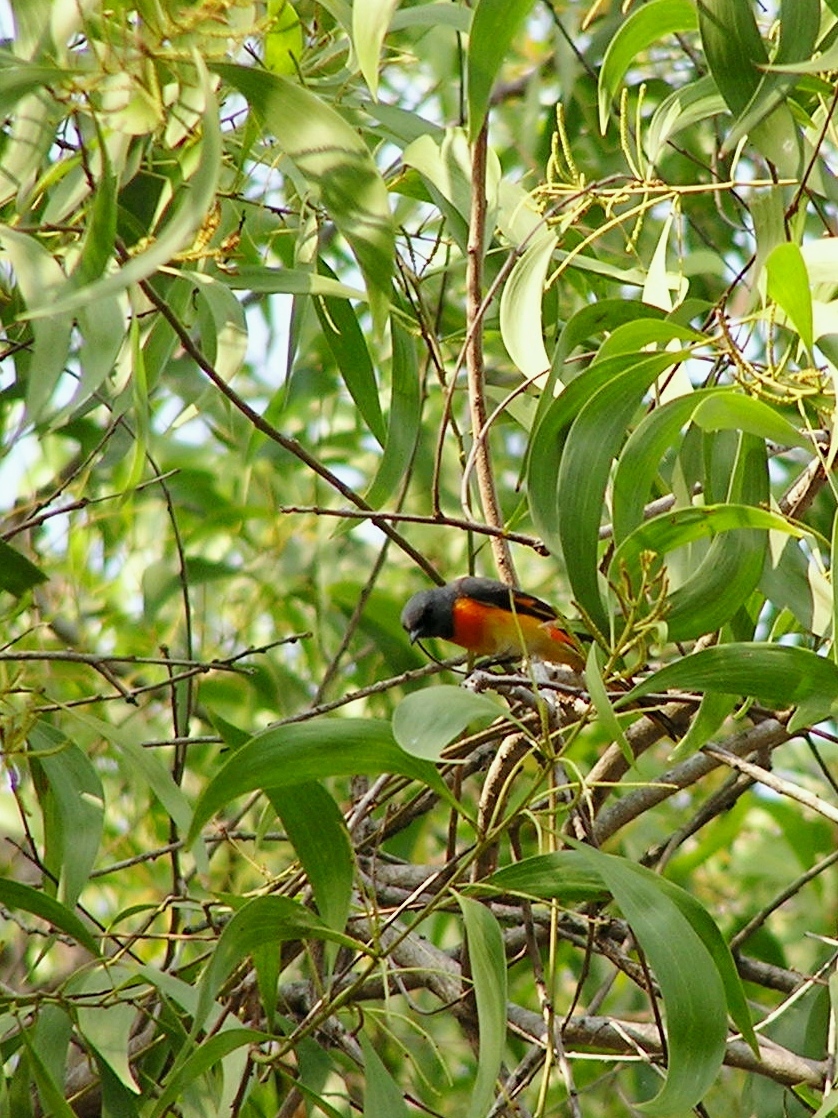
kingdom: Animalia
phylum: Chordata
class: Aves
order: Passeriformes
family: Campephagidae
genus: Pericrocotus
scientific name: Pericrocotus cinnamomeus
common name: Small minivet
